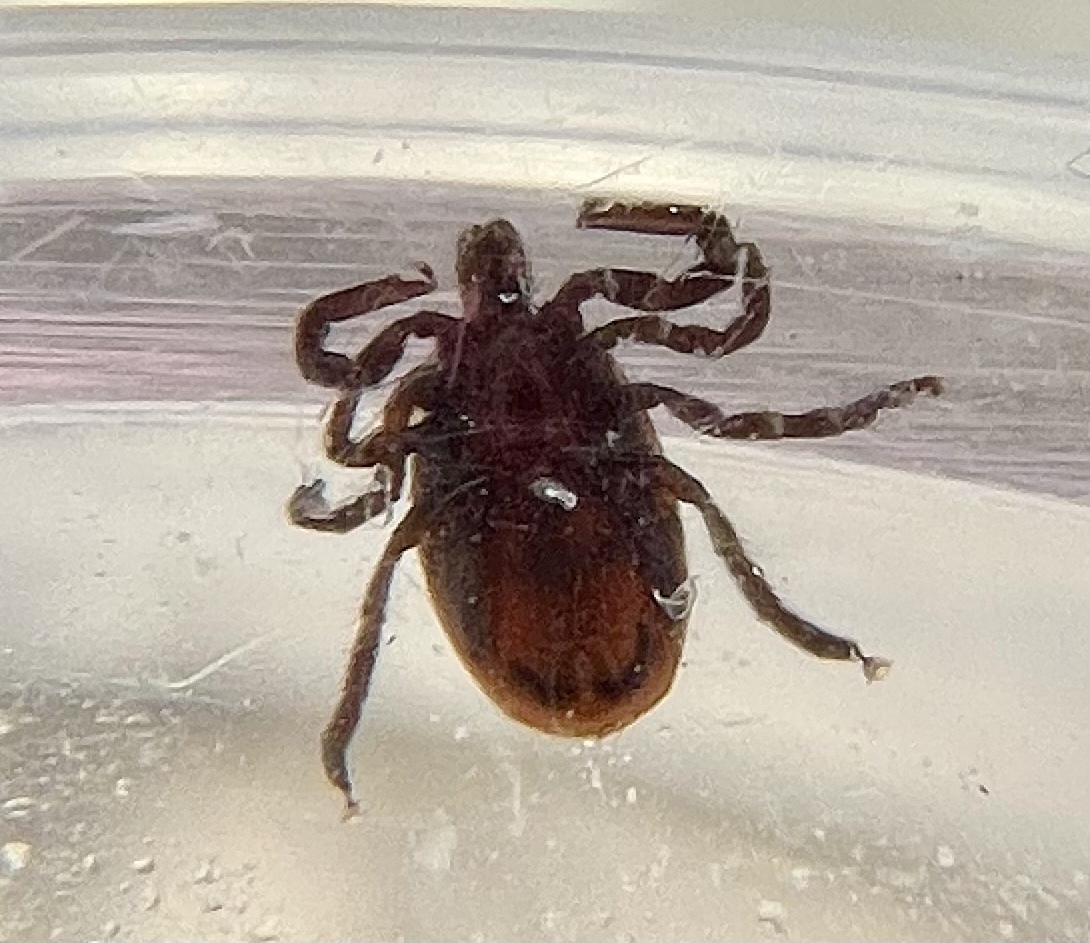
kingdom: Animalia
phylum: Arthropoda
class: Arachnida
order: Ixodida
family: Ixodidae
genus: Ixodes
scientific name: Ixodes pacificus
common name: California black-legged tick
